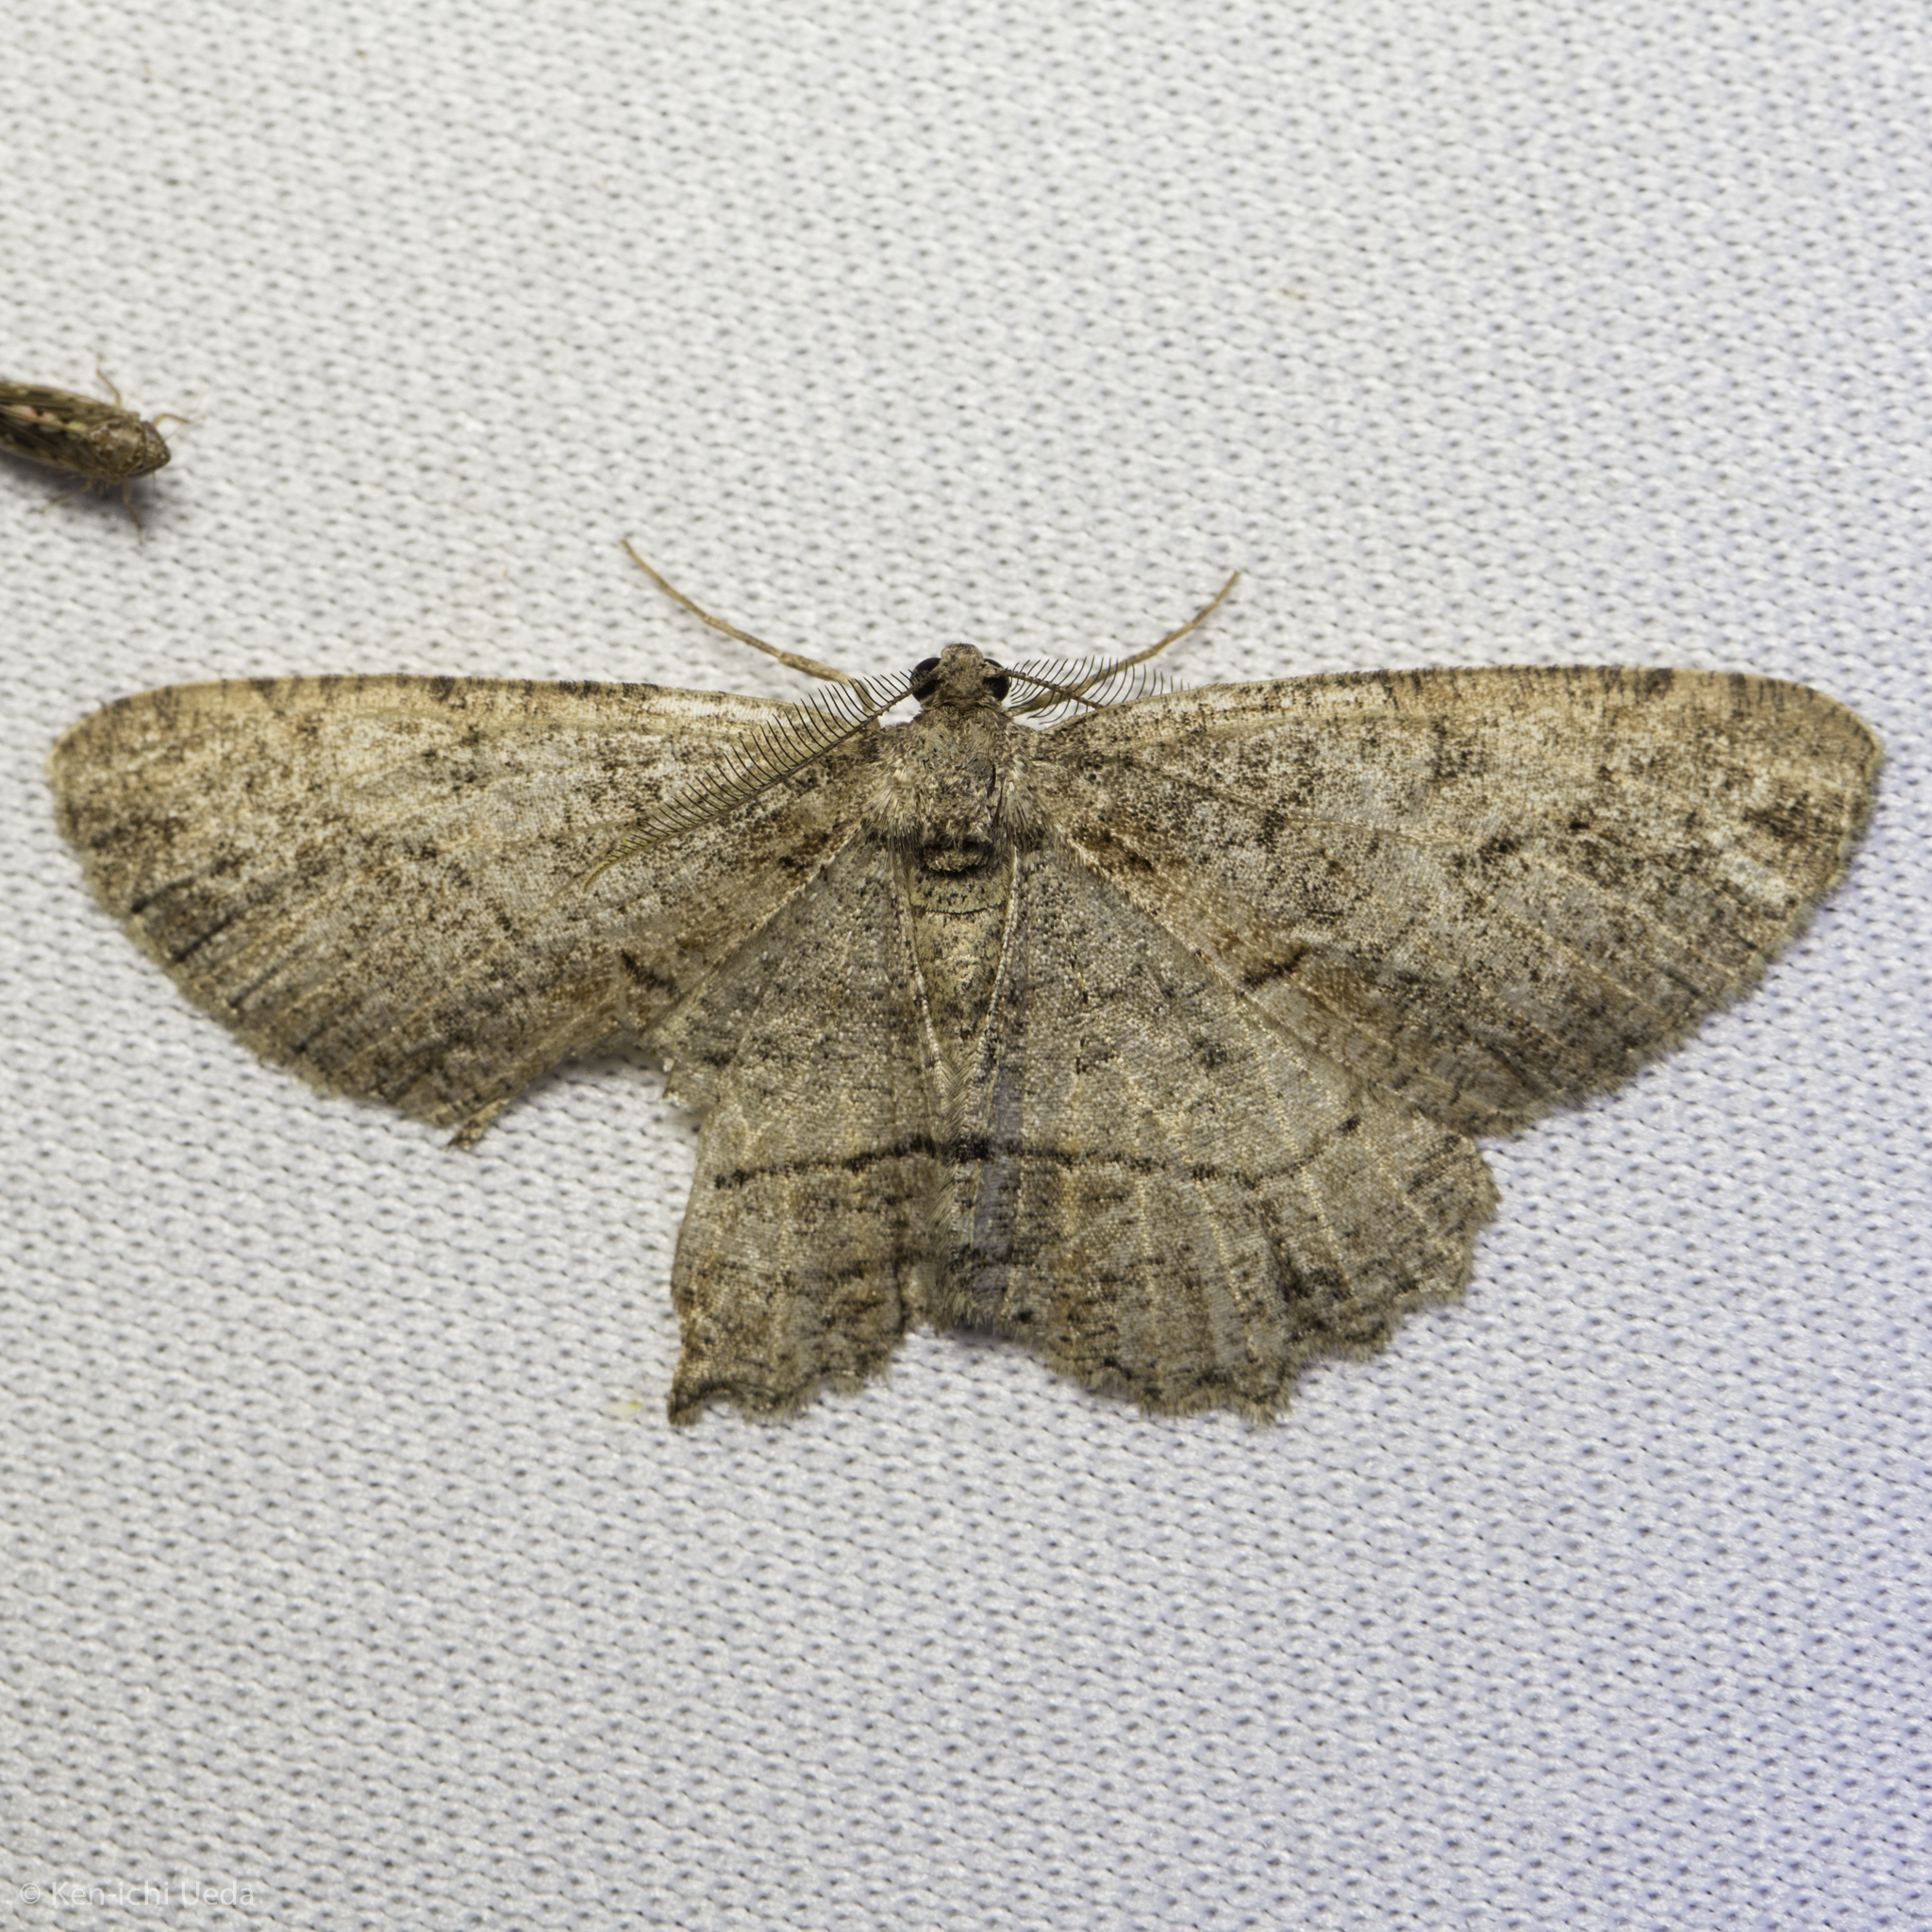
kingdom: Animalia
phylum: Arthropoda
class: Insecta
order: Lepidoptera
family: Geometridae
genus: Neoalcis
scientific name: Neoalcis californiaria
